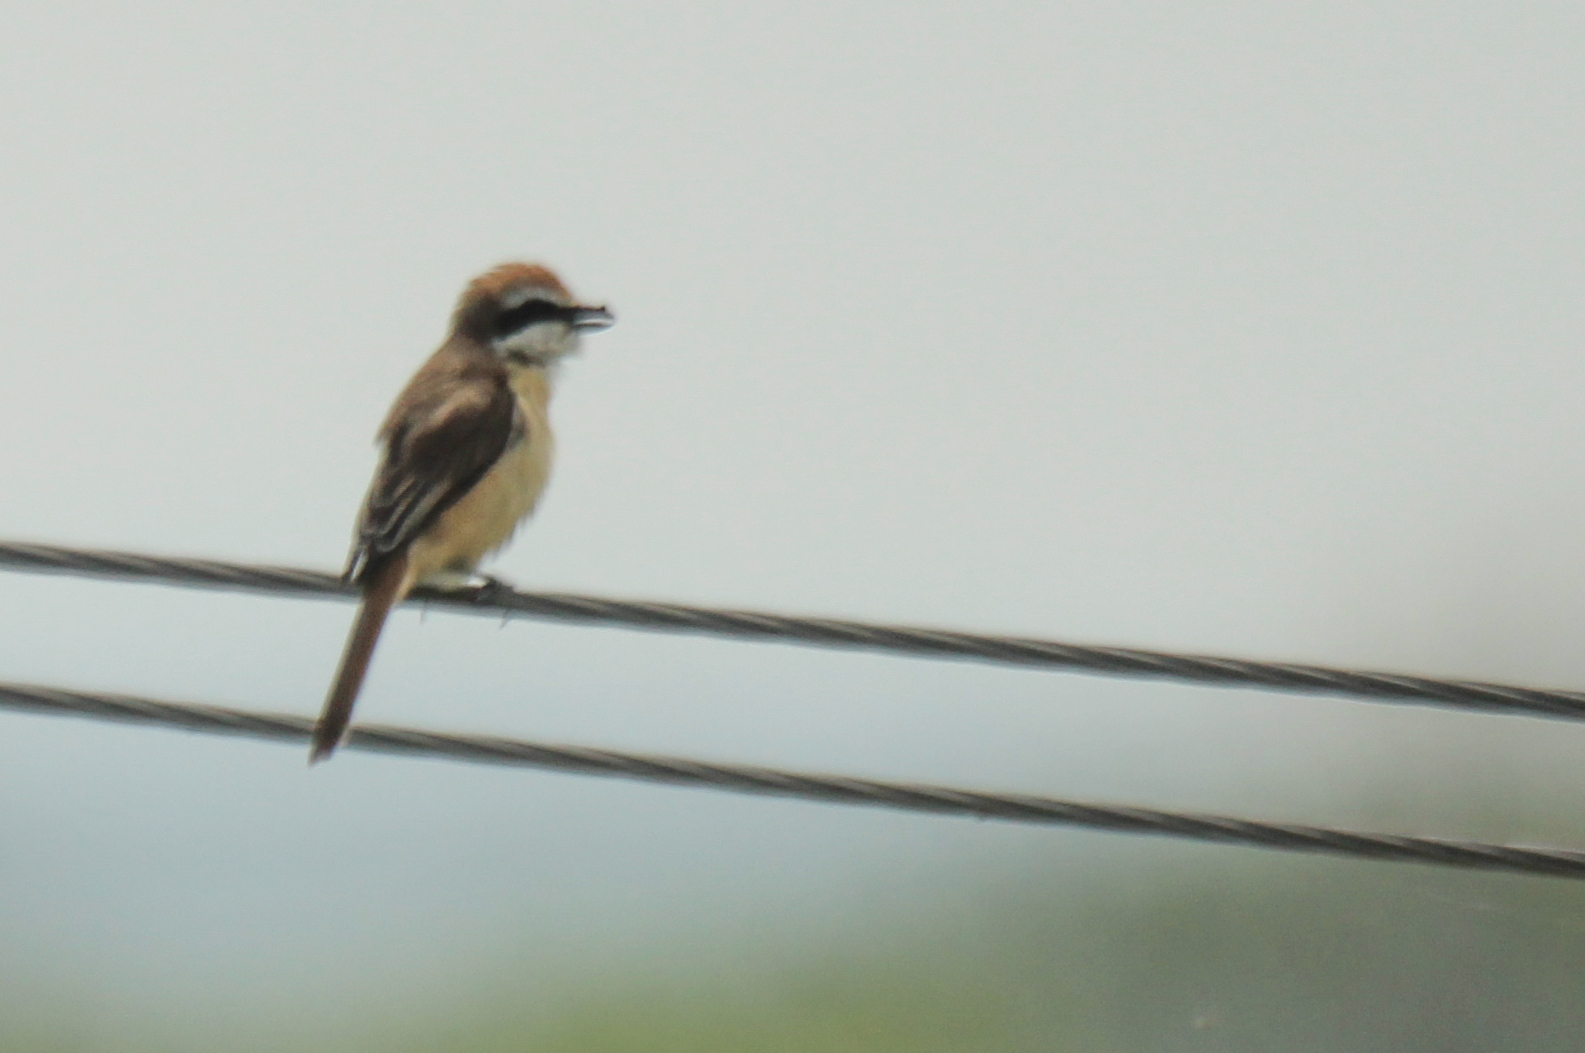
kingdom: Animalia
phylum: Chordata
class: Aves
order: Passeriformes
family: Laniidae
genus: Lanius
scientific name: Lanius cristatus
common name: Brown shrike
